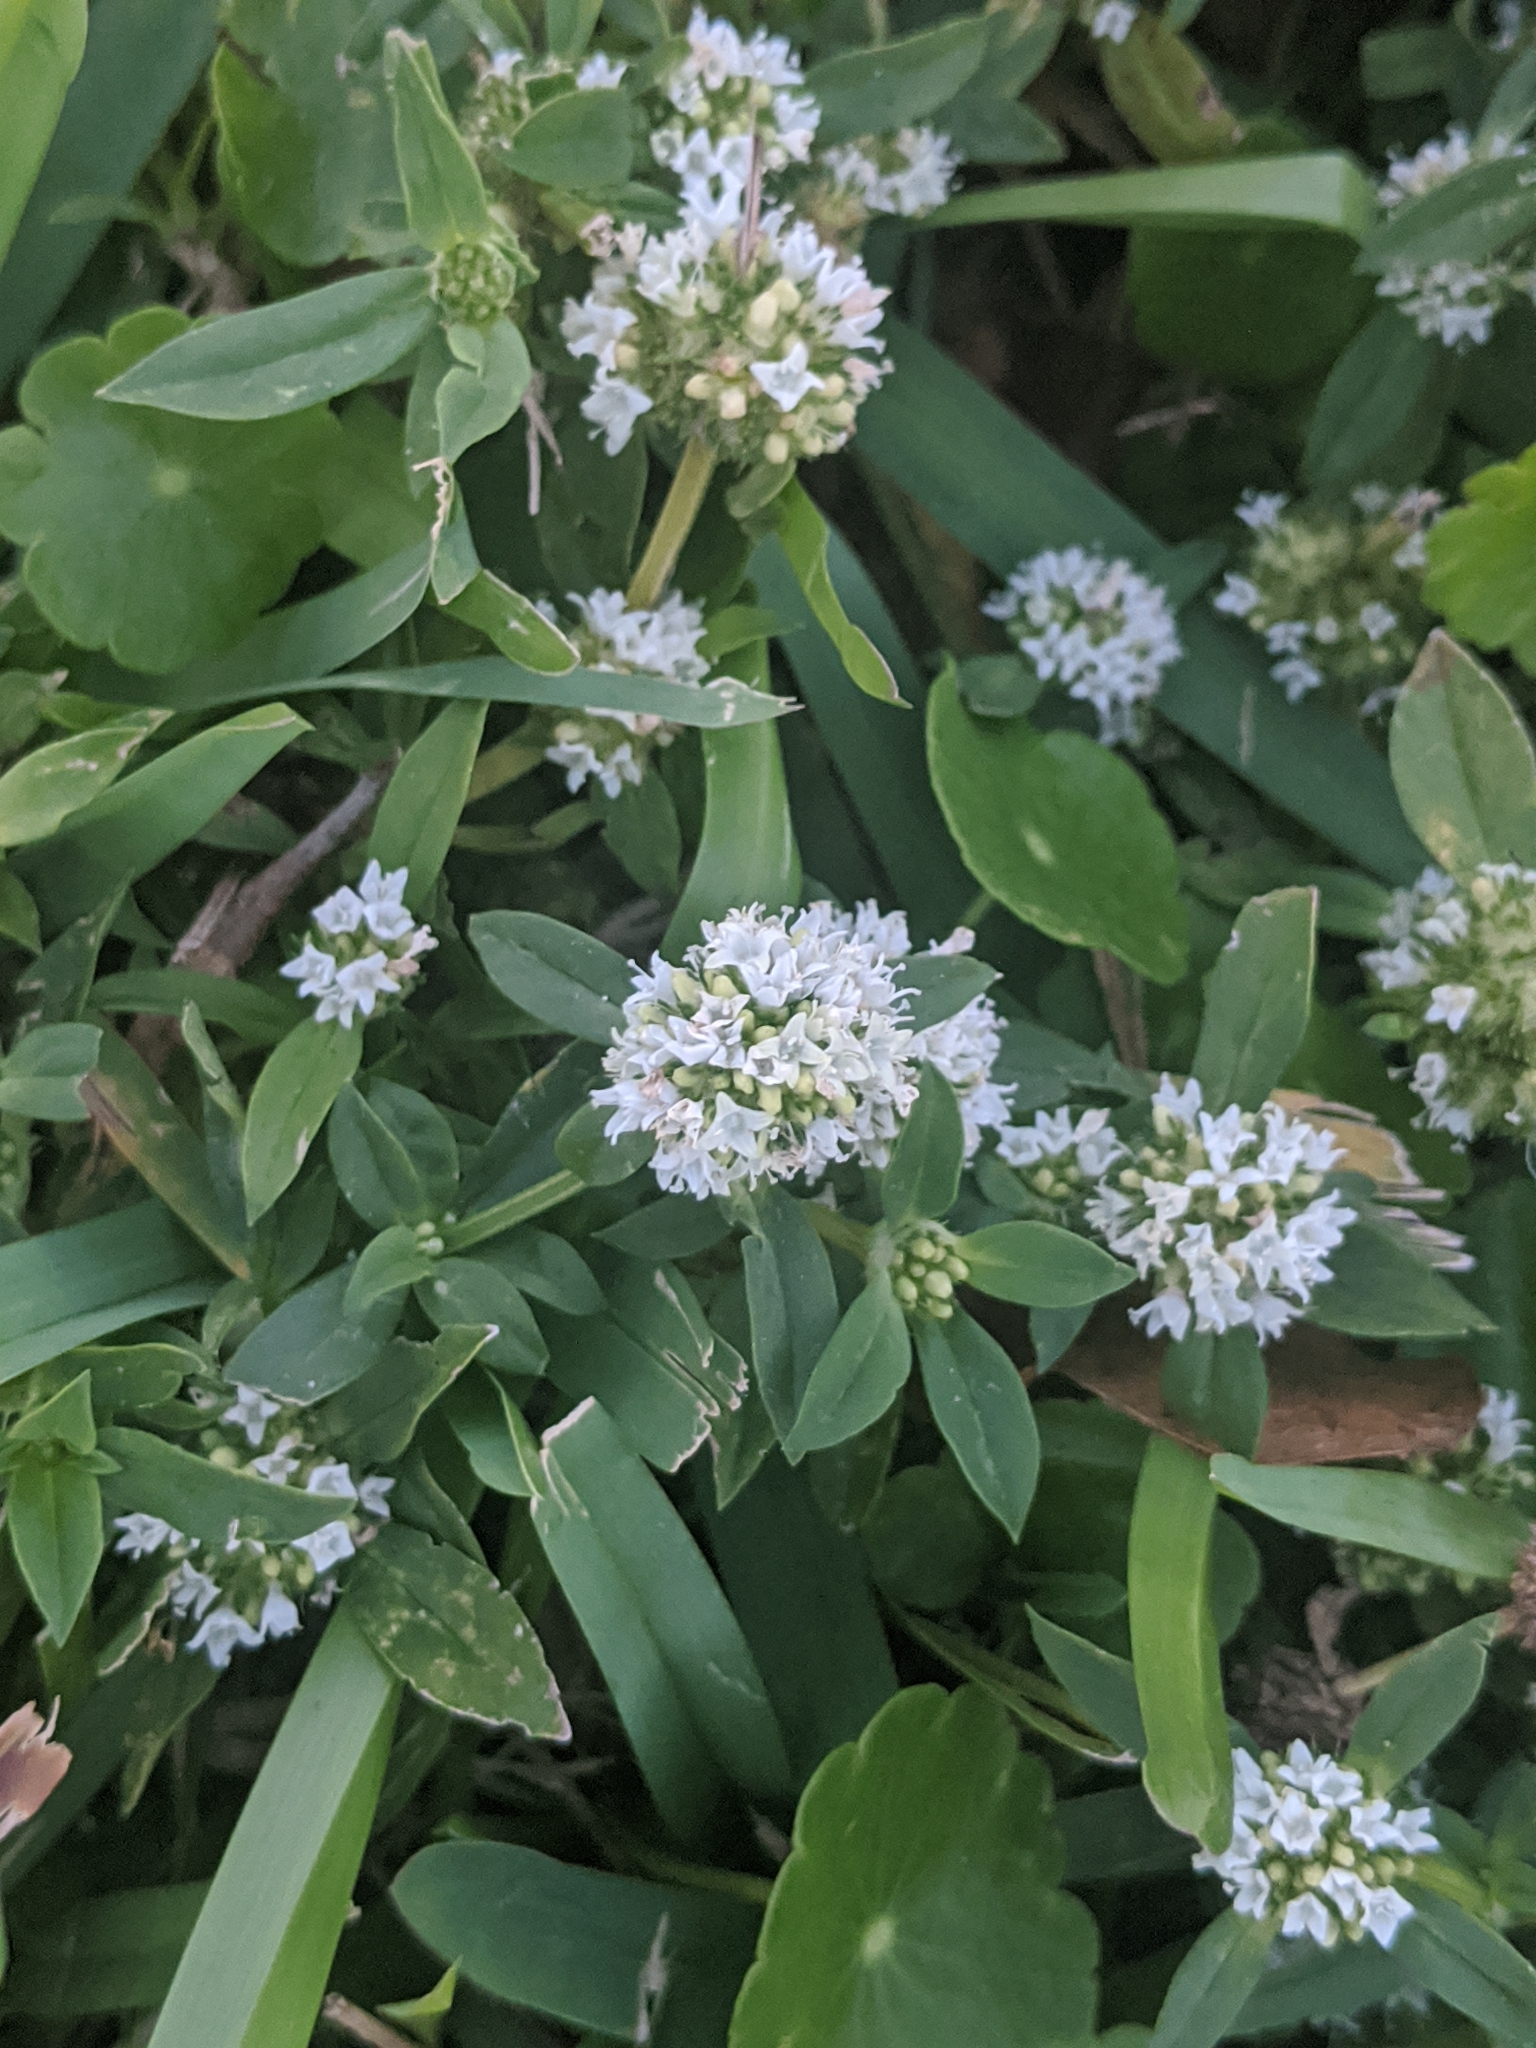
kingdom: Plantae
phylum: Tracheophyta
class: Magnoliopsida
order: Gentianales
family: Rubiaceae
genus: Spermacoce
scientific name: Spermacoce verticillata
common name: Shrubby false buttonweed
